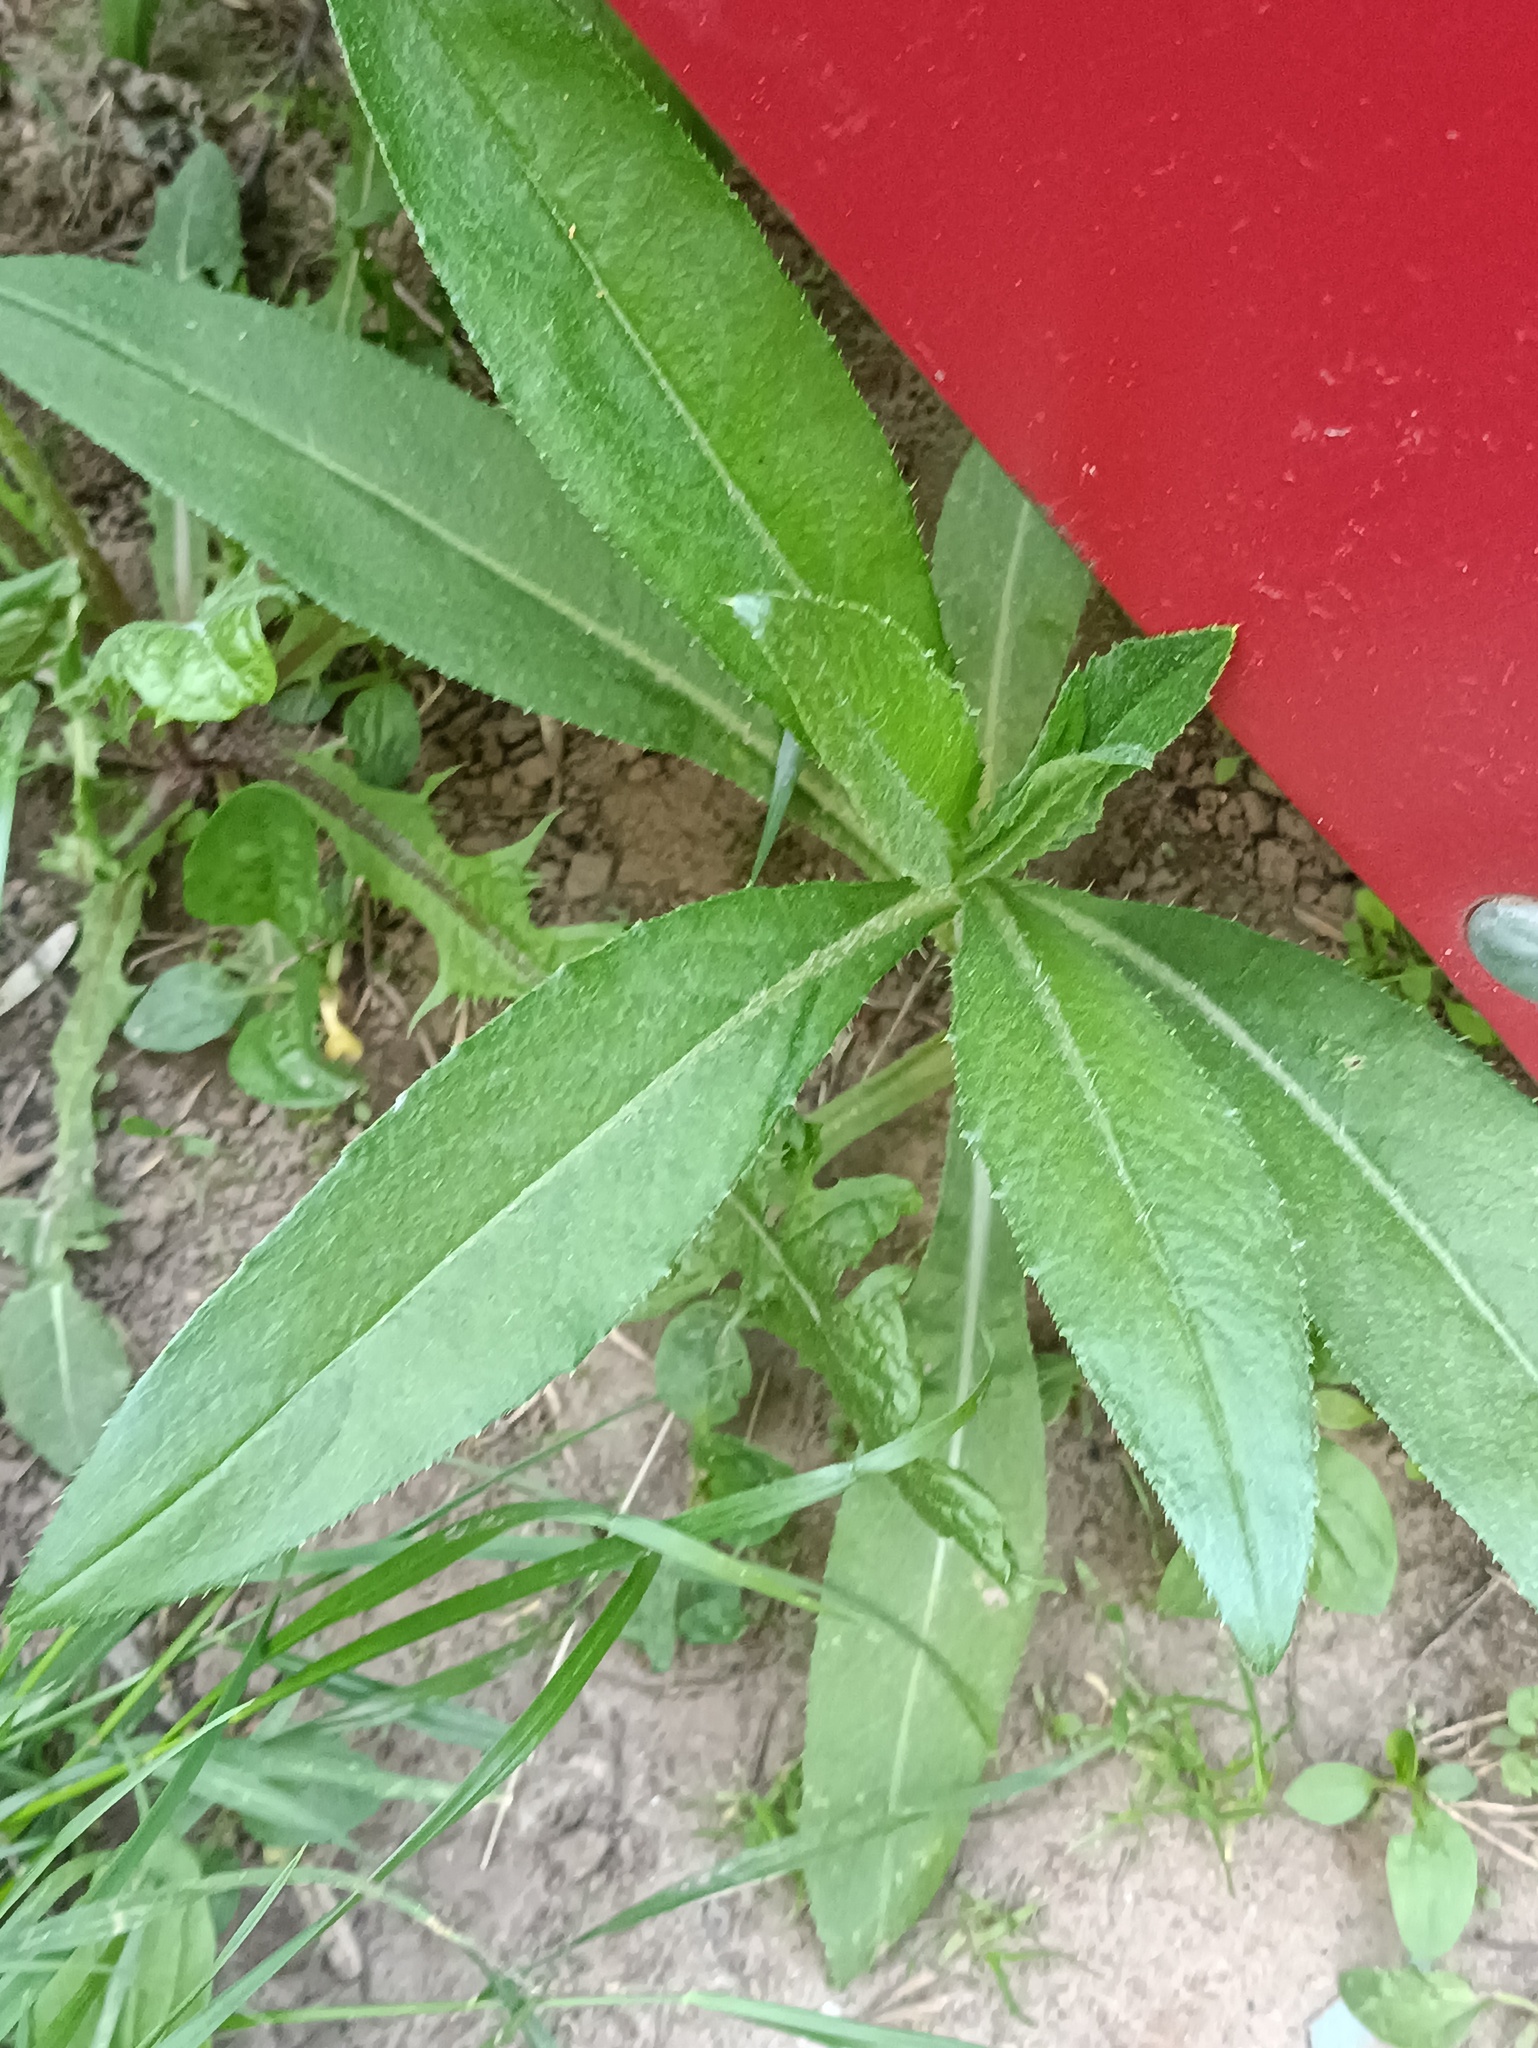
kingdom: Plantae
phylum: Tracheophyta
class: Magnoliopsida
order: Asterales
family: Asteraceae
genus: Cirsium
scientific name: Cirsium arvense
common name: Creeping thistle
